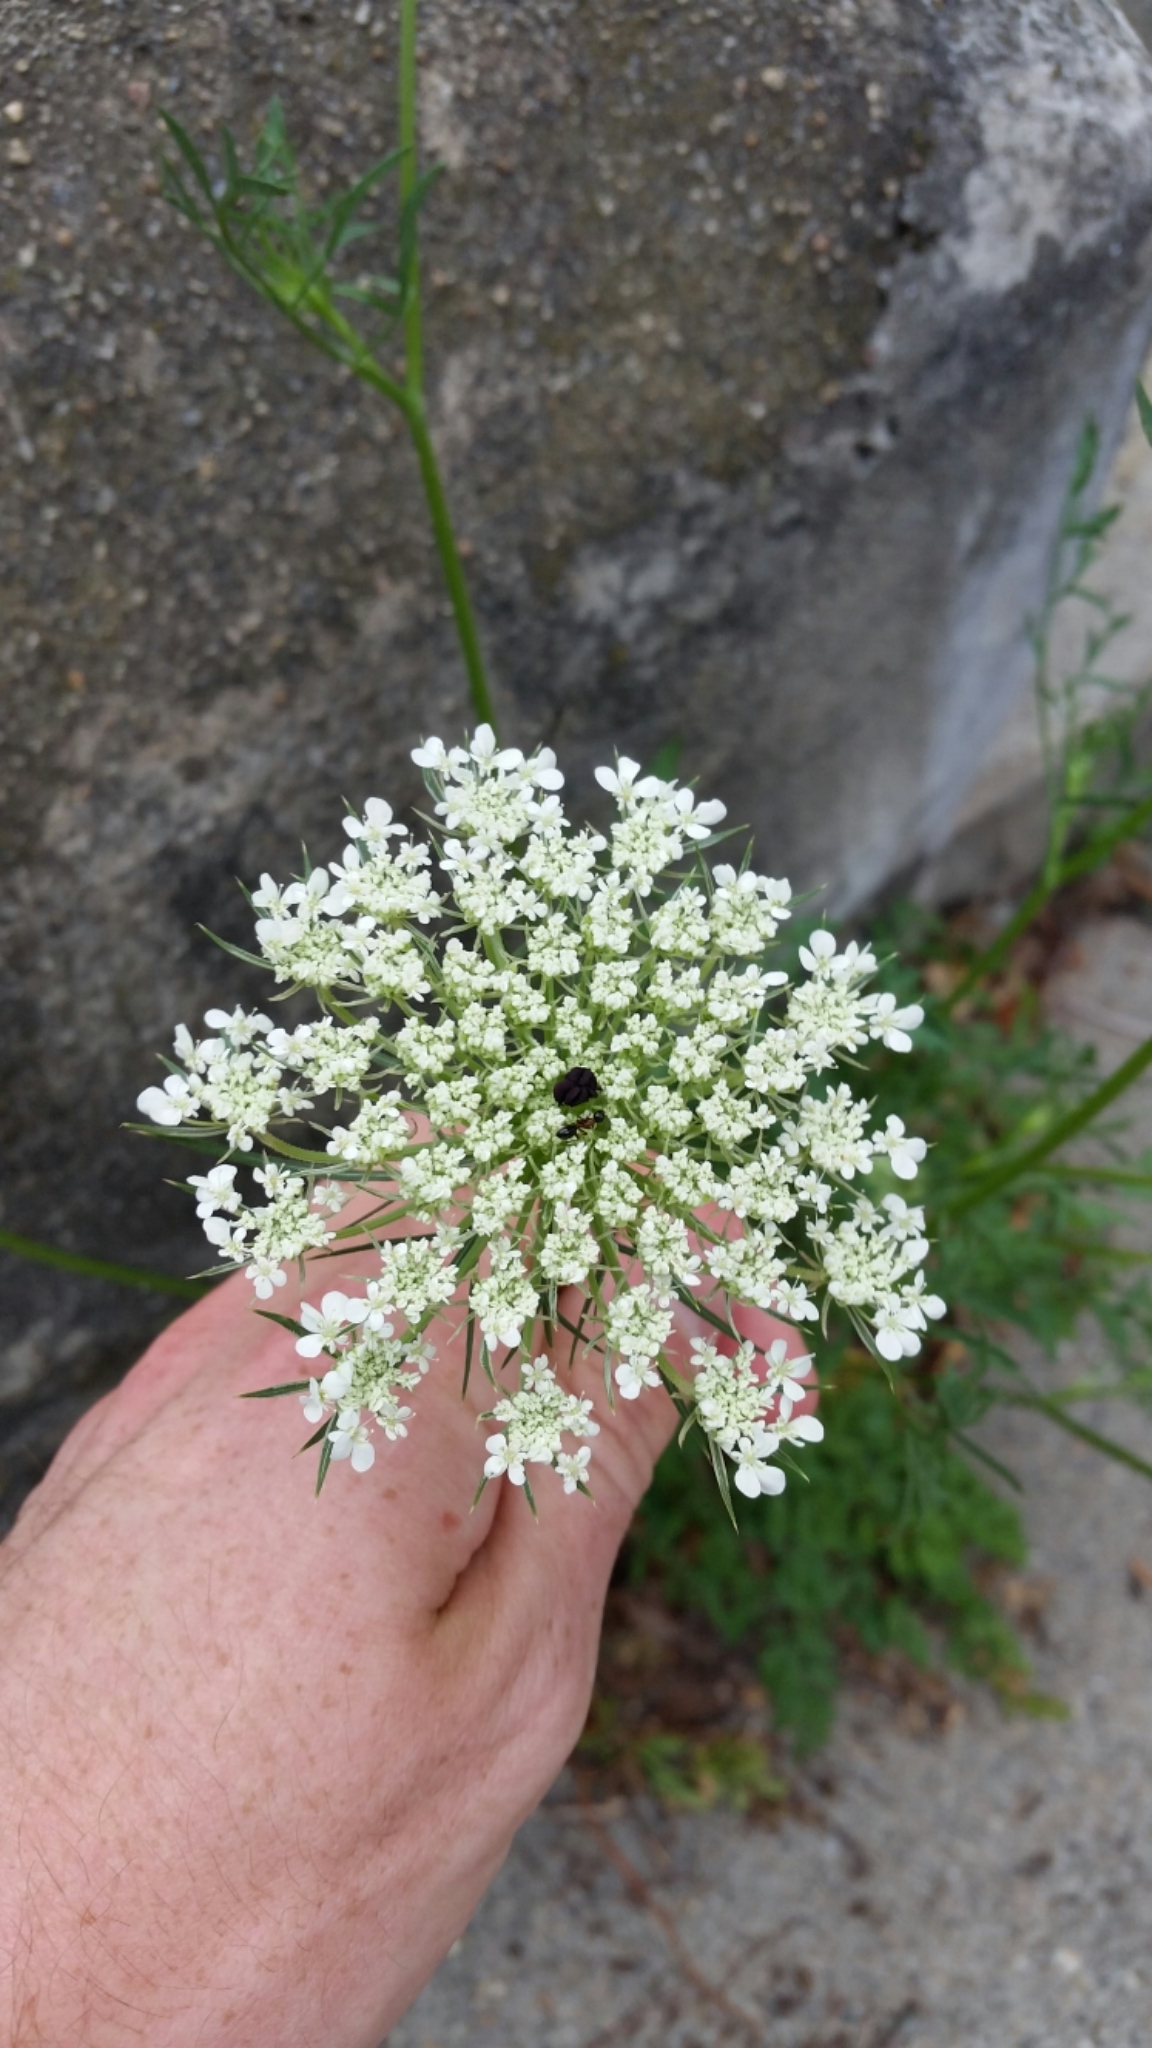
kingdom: Plantae
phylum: Tracheophyta
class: Magnoliopsida
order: Apiales
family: Apiaceae
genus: Daucus
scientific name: Daucus carota
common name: Wild carrot
